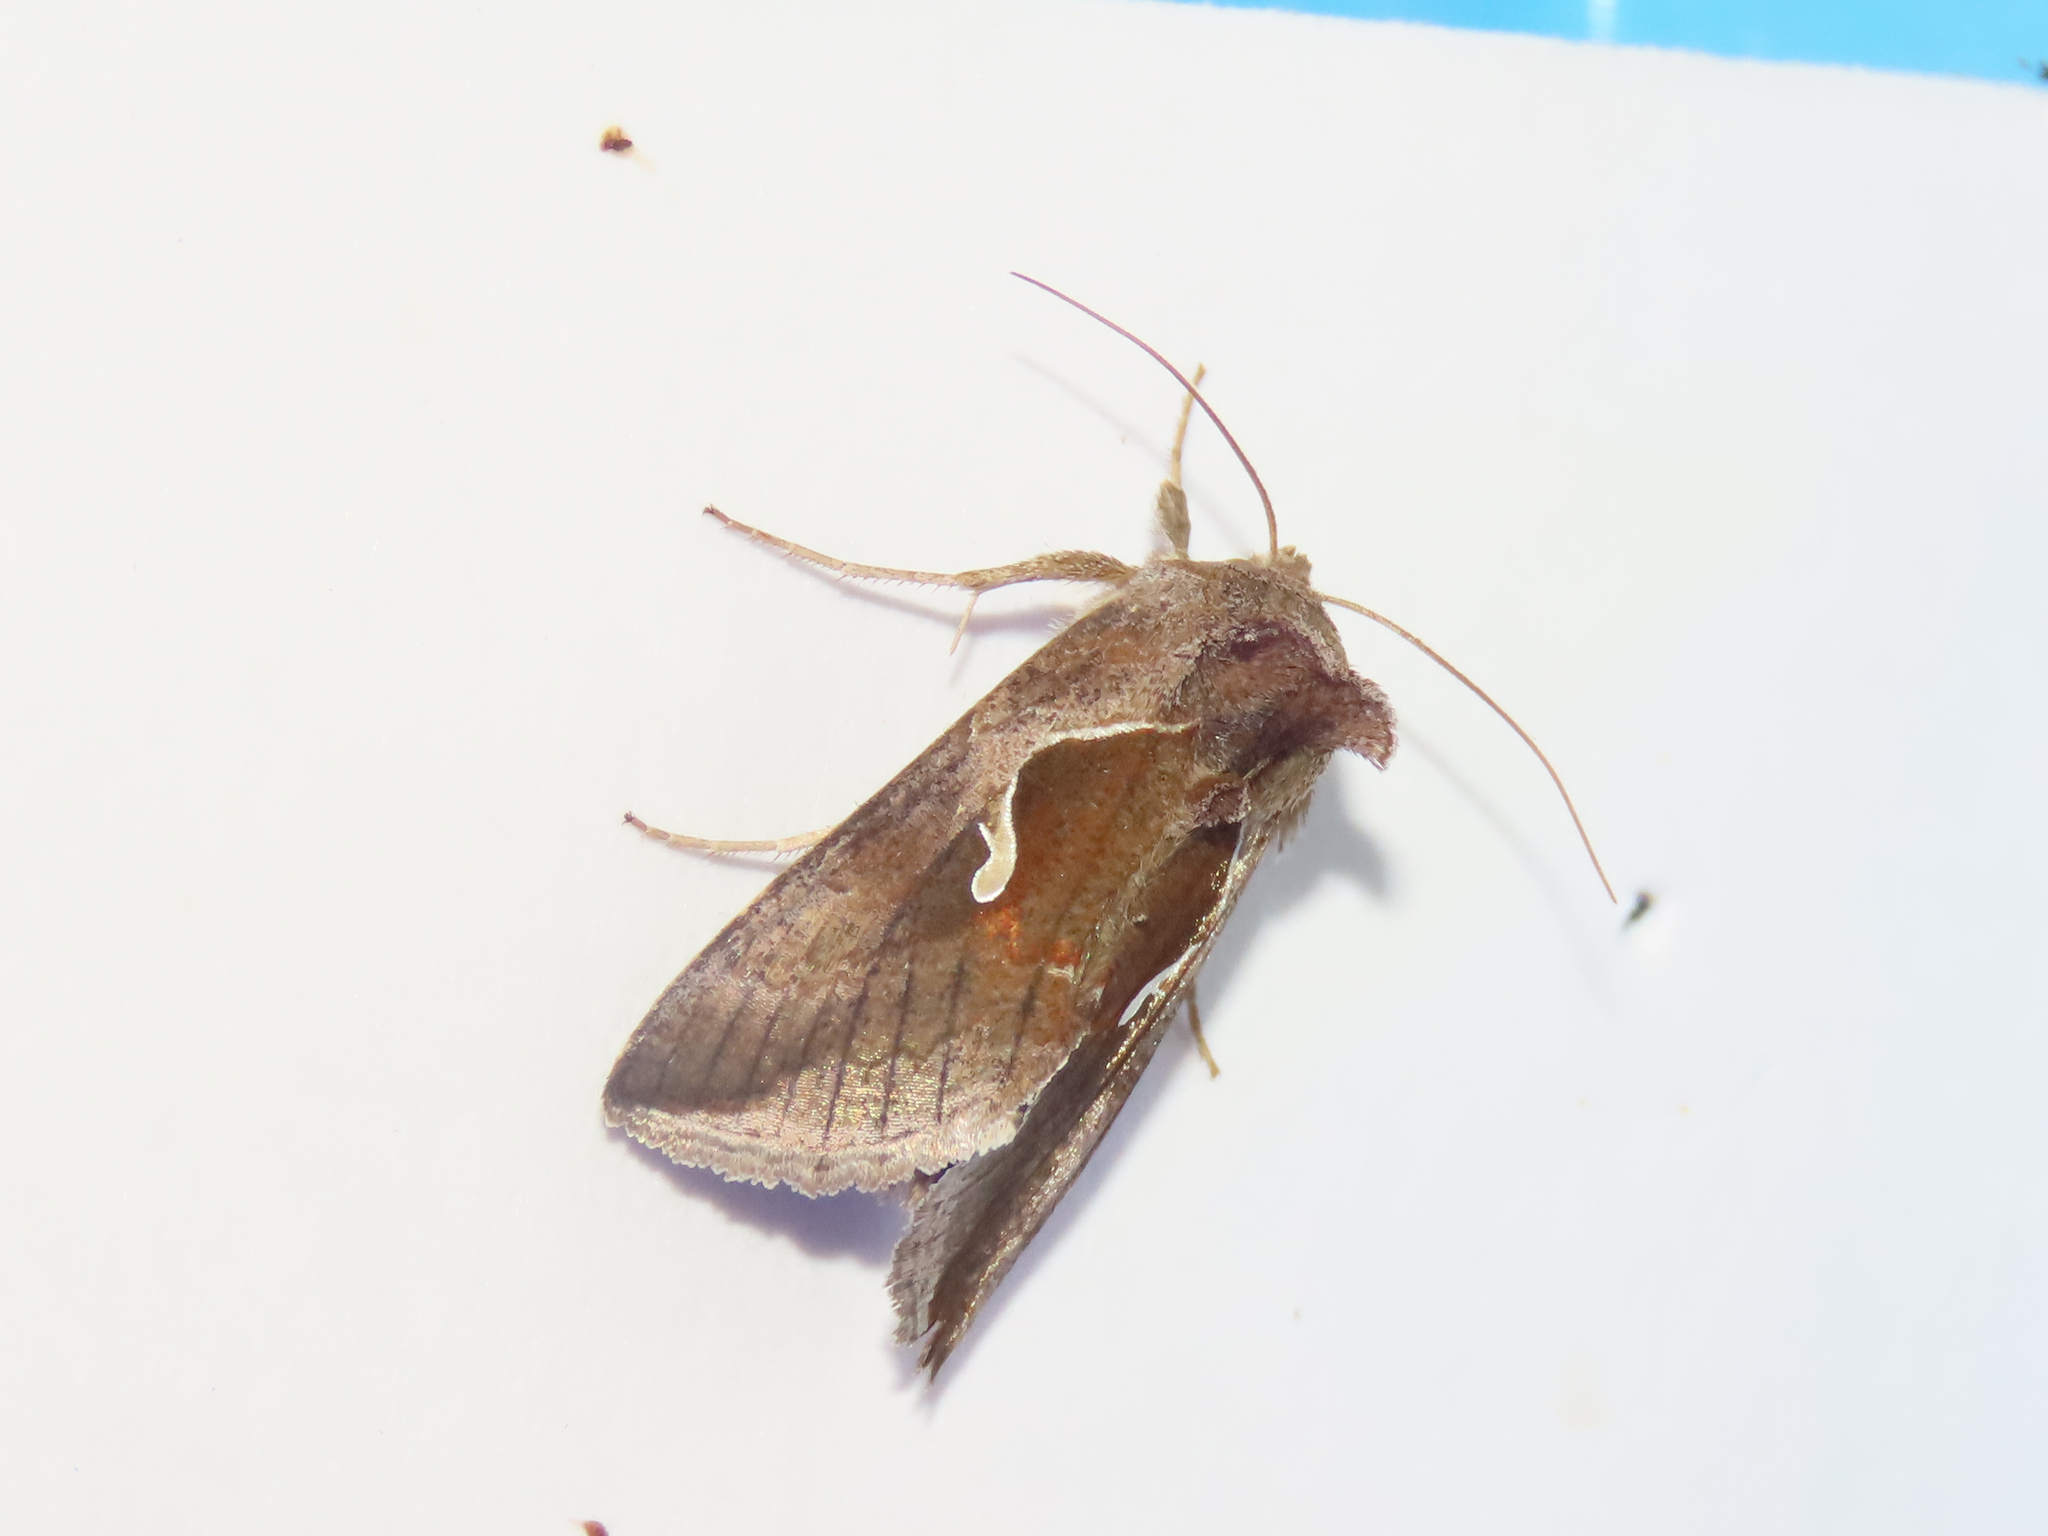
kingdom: Animalia
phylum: Arthropoda
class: Insecta
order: Lepidoptera
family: Noctuidae
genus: Anagrapha
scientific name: Anagrapha falcifera
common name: Celery looper
